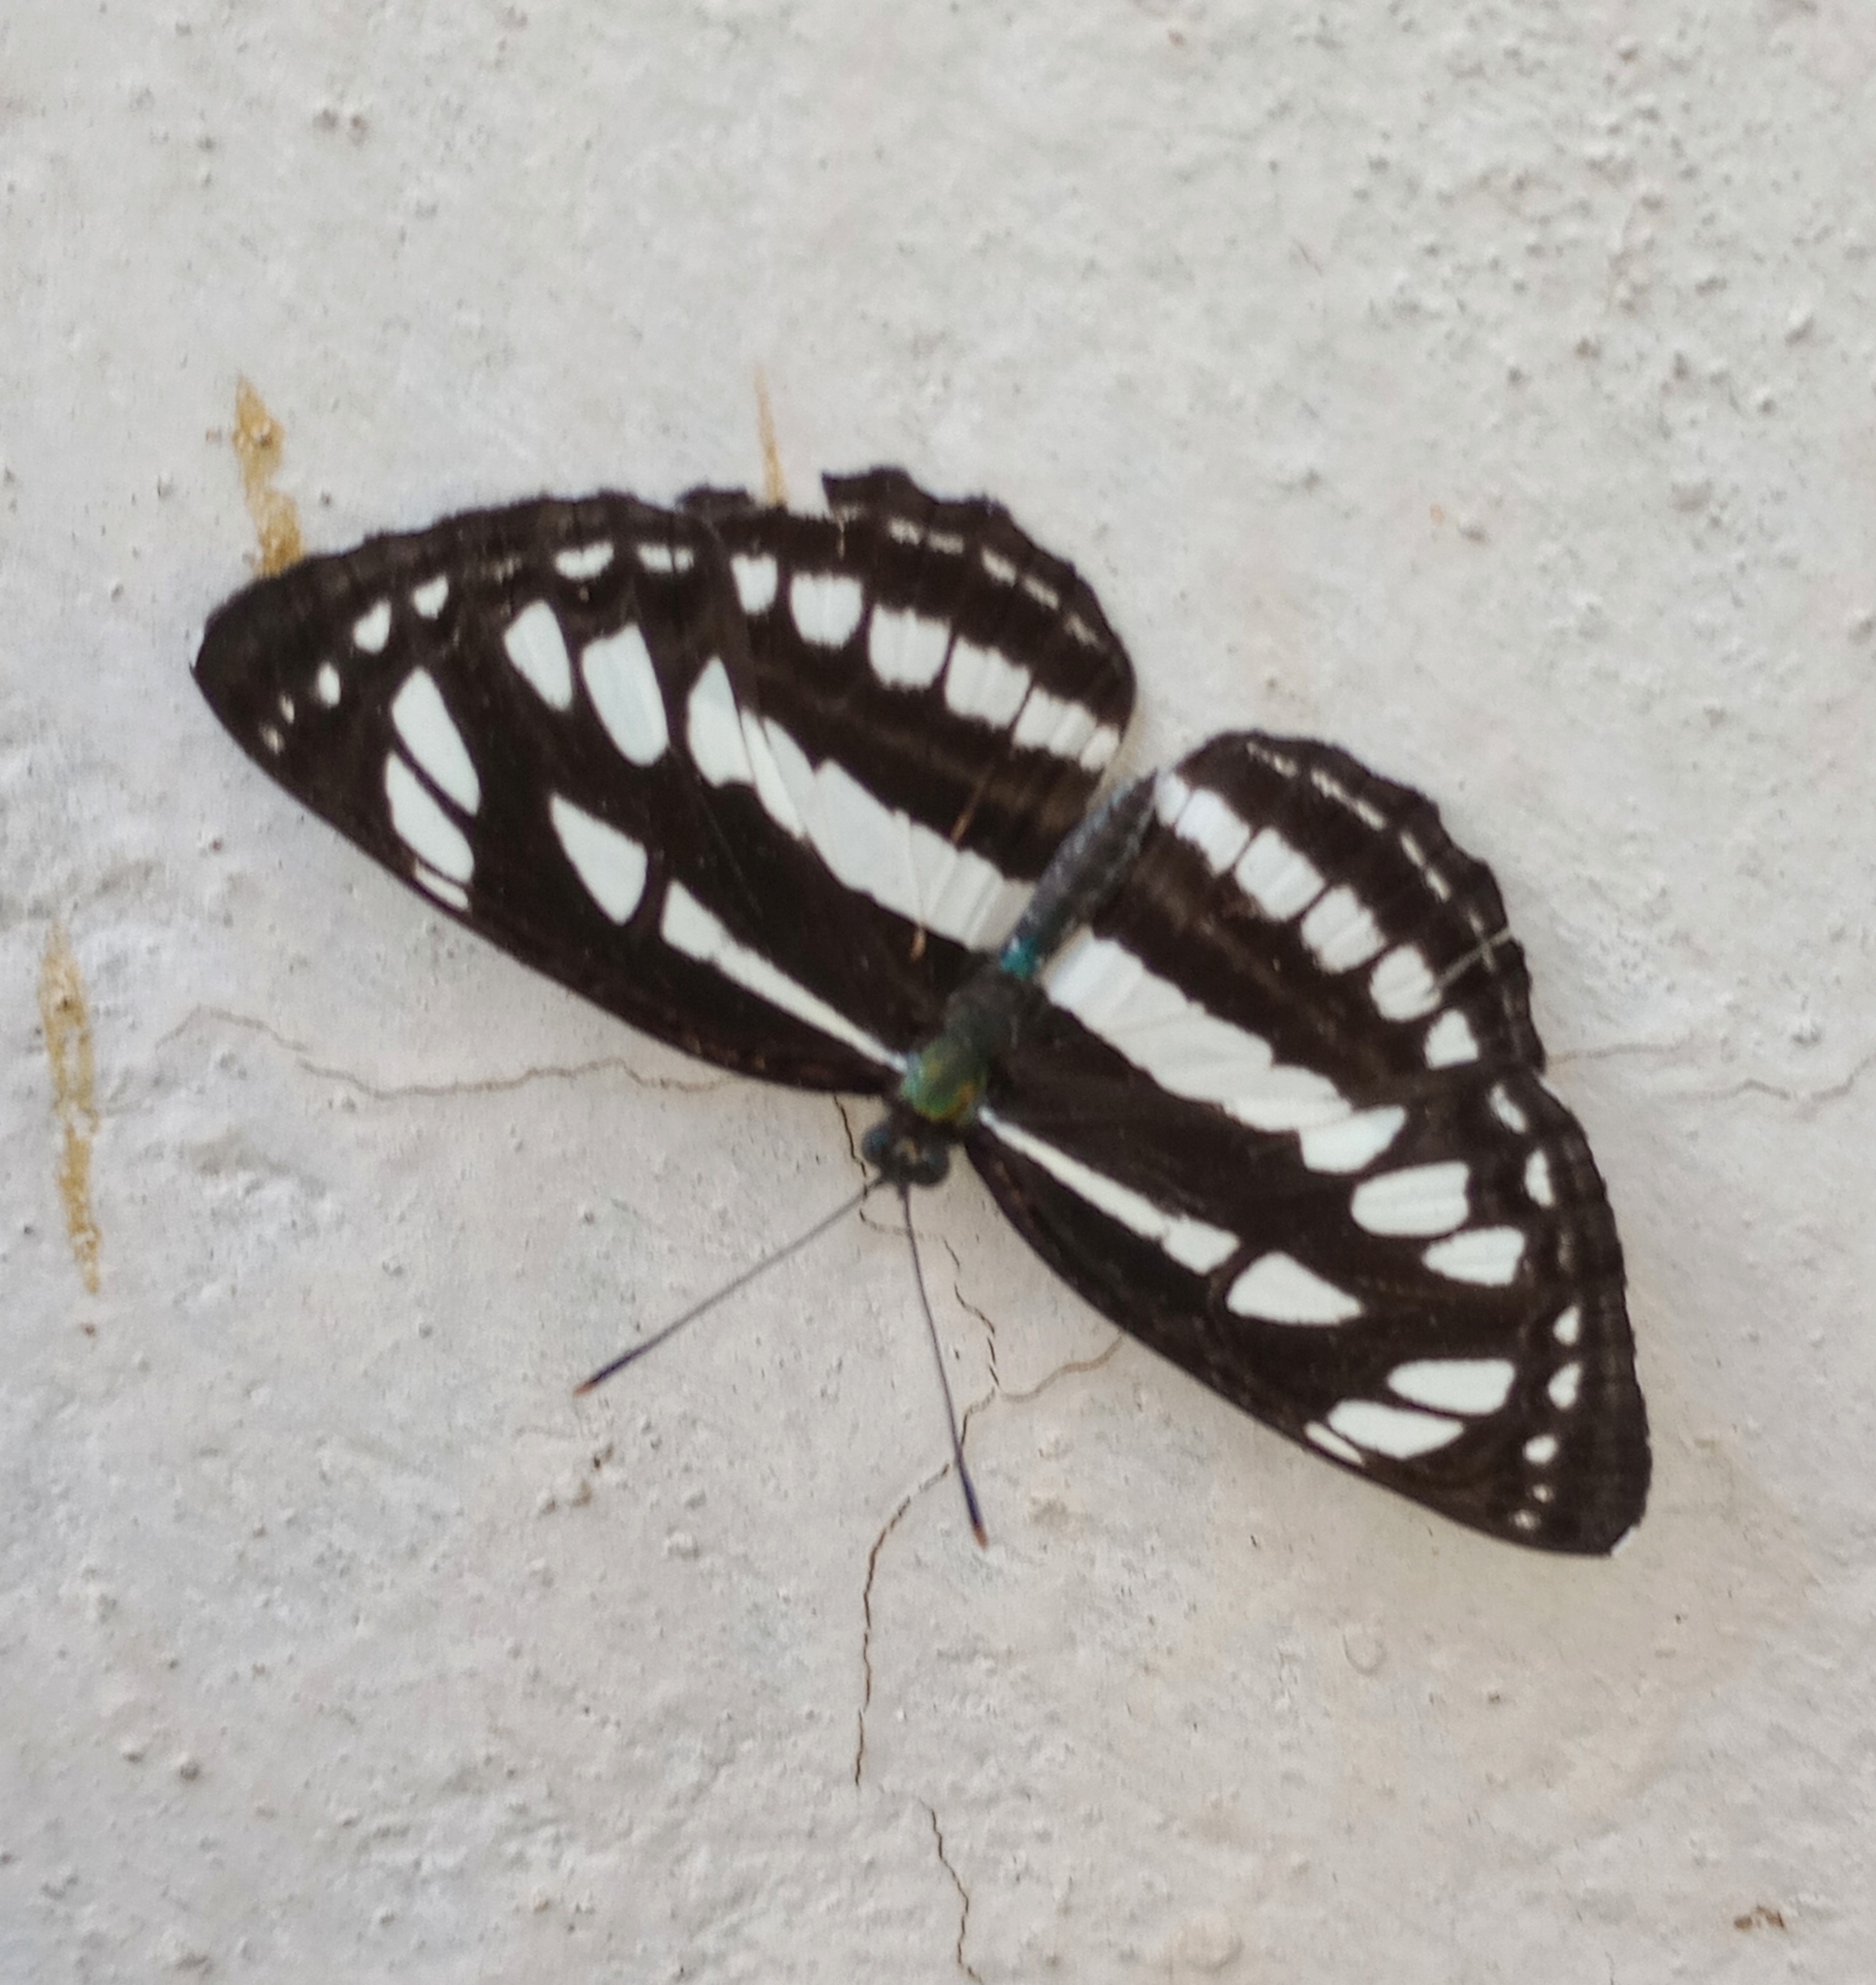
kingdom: Animalia
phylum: Arthropoda
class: Insecta
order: Lepidoptera
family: Nymphalidae
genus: Neptis
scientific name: Neptis hylas
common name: Common sailer
